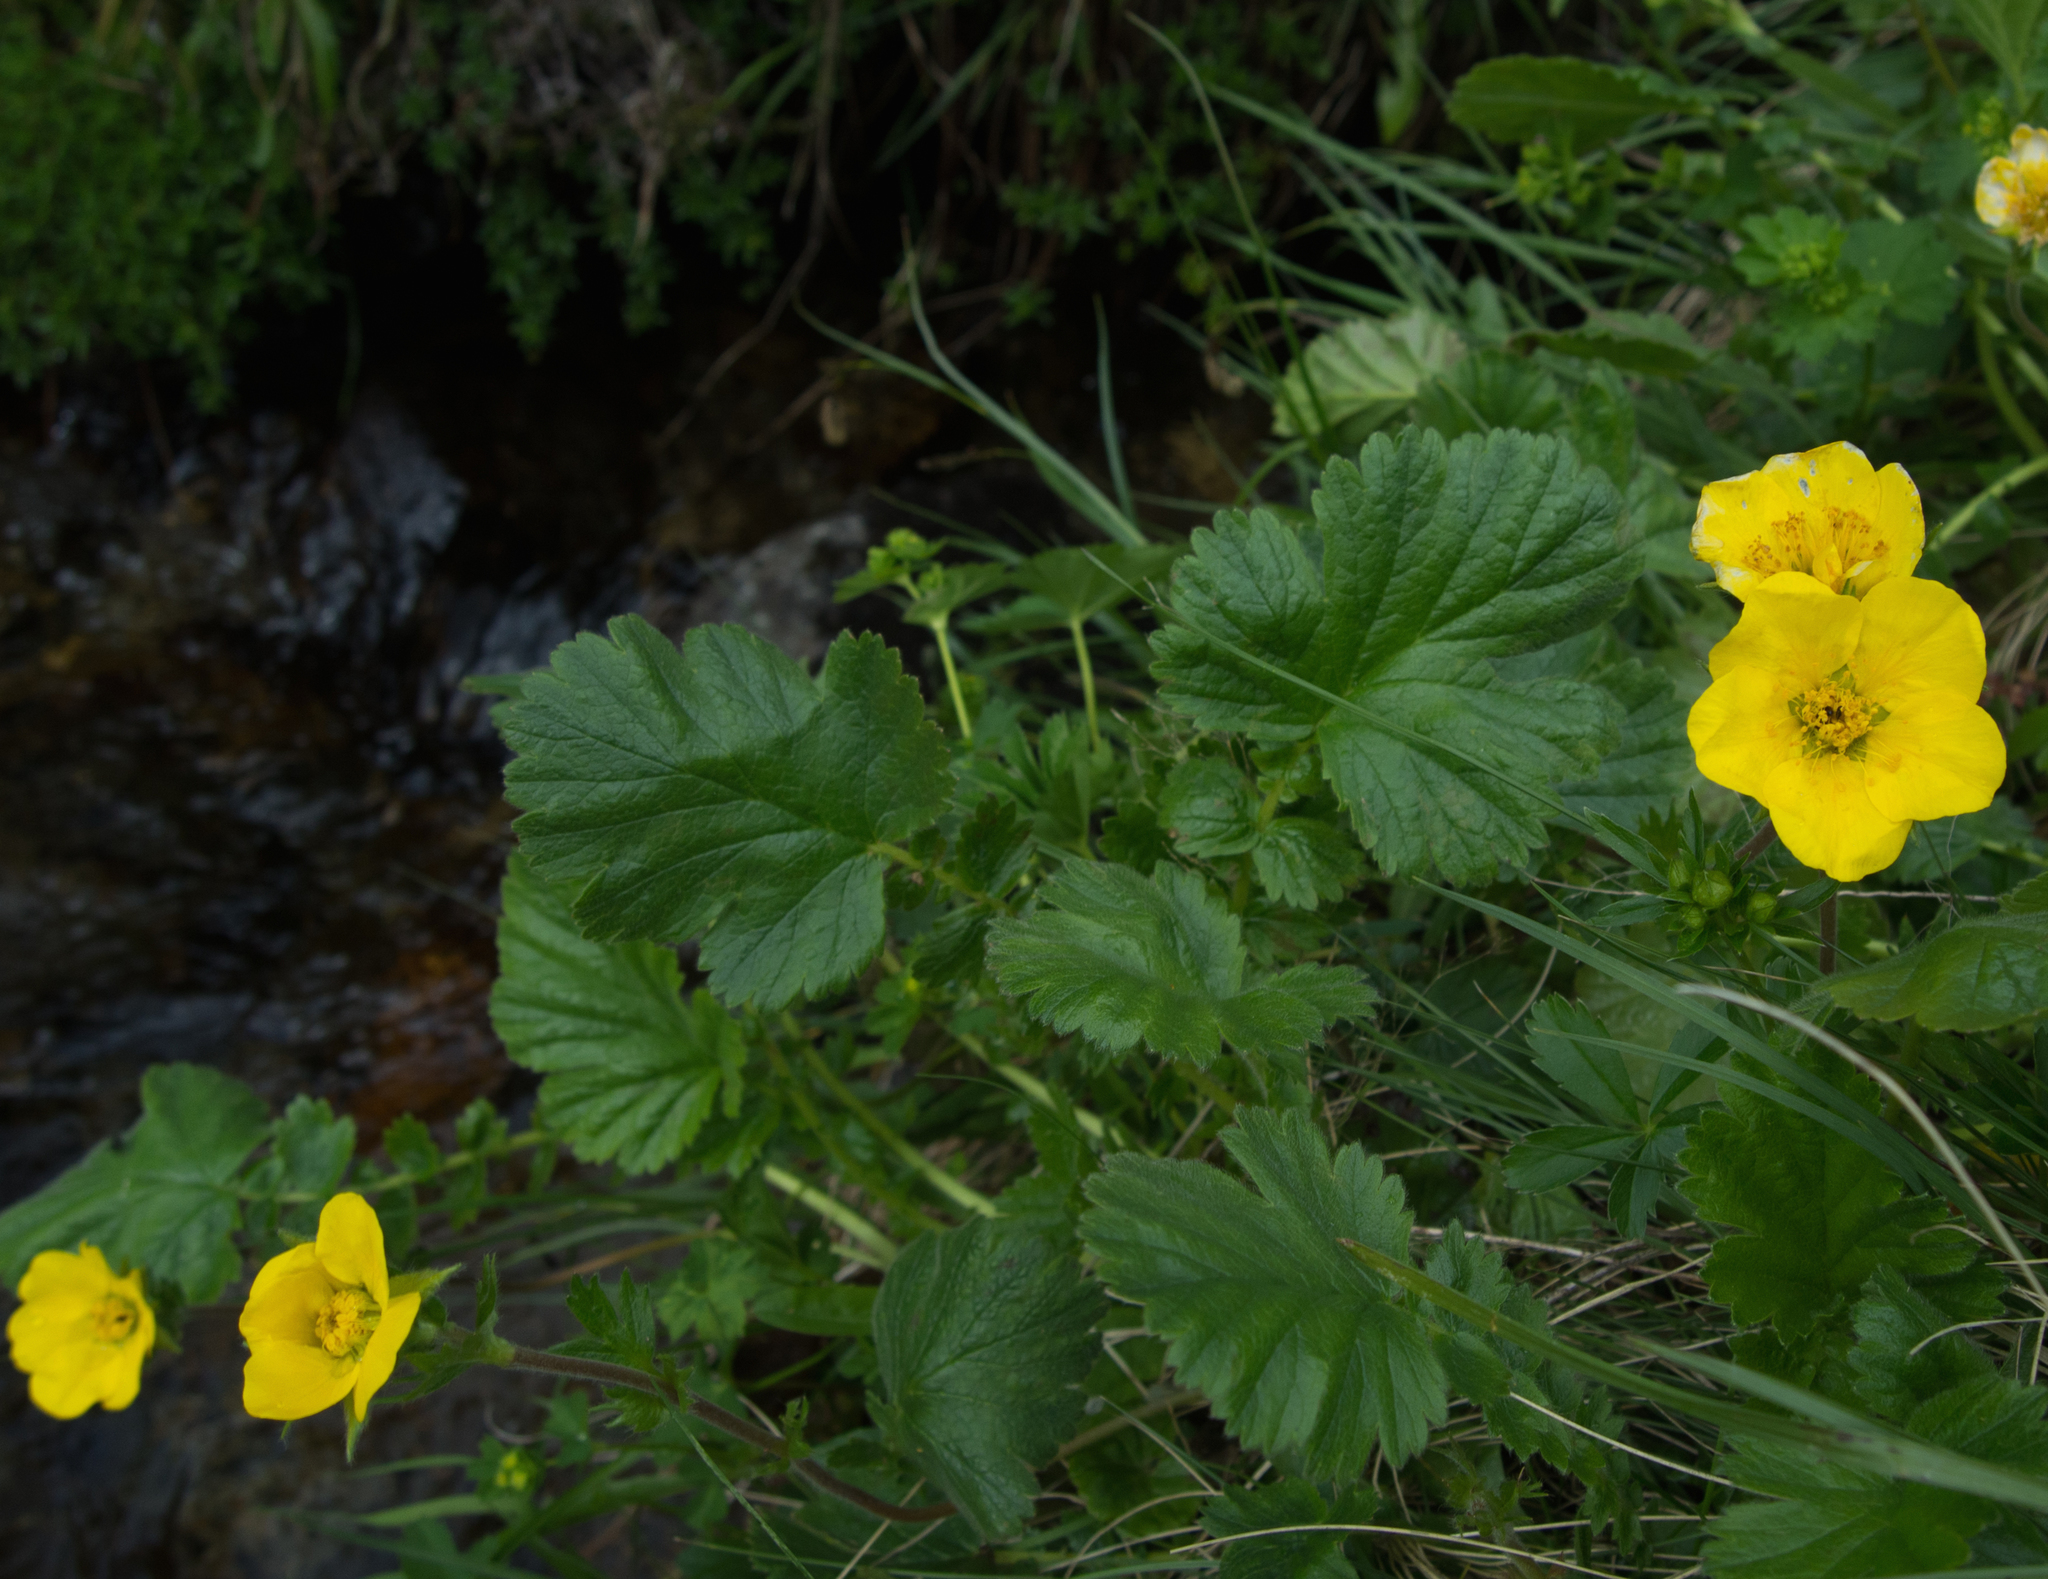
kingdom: Plantae
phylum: Tracheophyta
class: Magnoliopsida
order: Rosales
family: Rosaceae
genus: Geum
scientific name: Geum montanum
